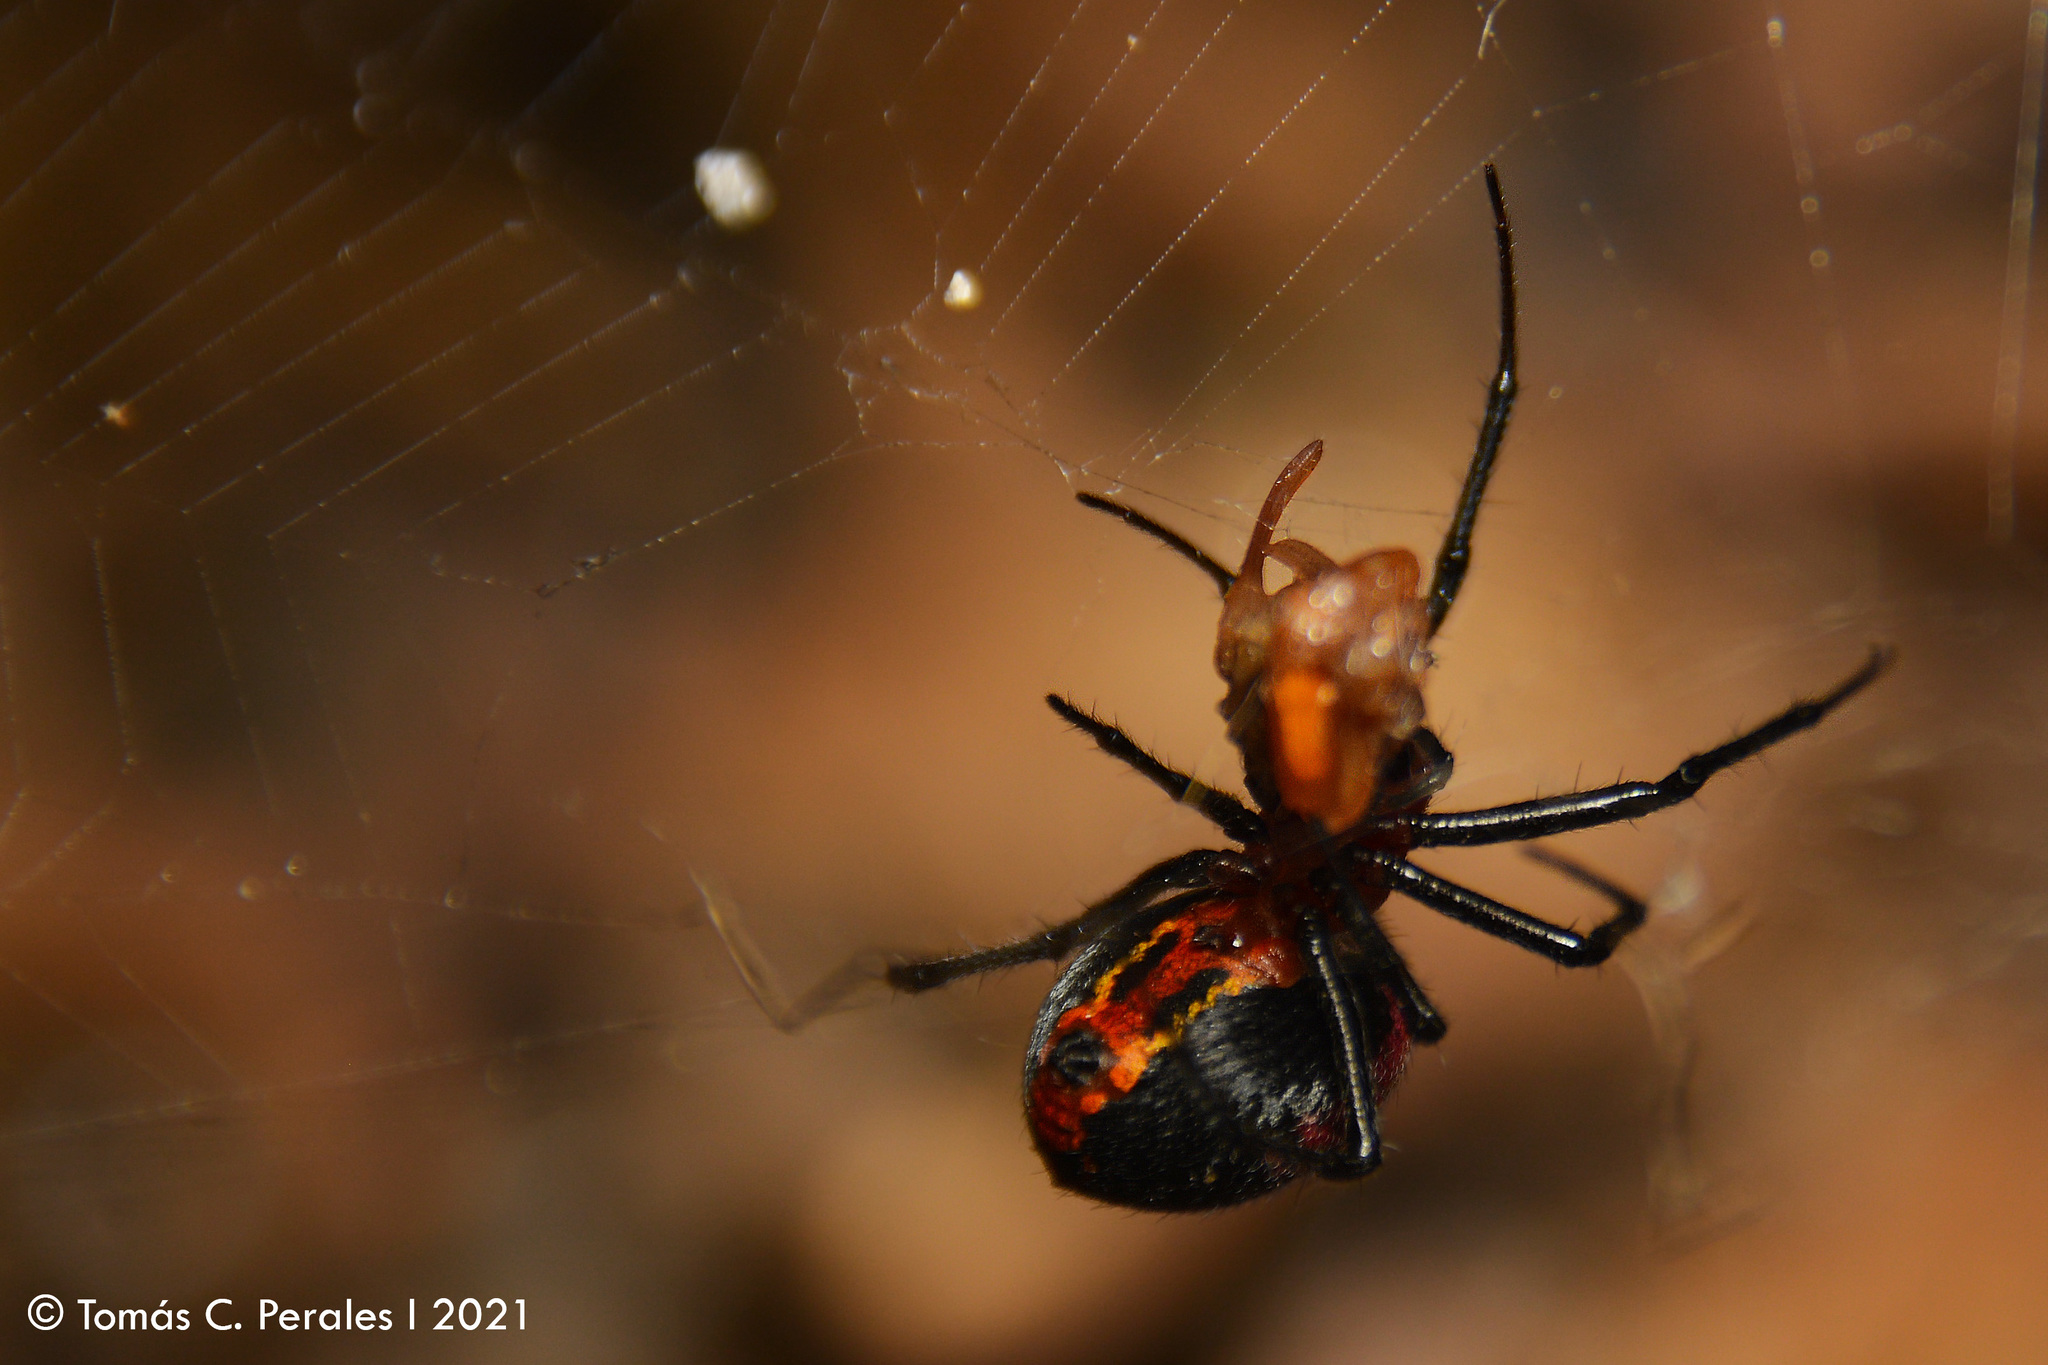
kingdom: Animalia
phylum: Arthropoda
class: Arachnida
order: Araneae
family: Araneidae
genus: Alpaida
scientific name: Alpaida carminea
